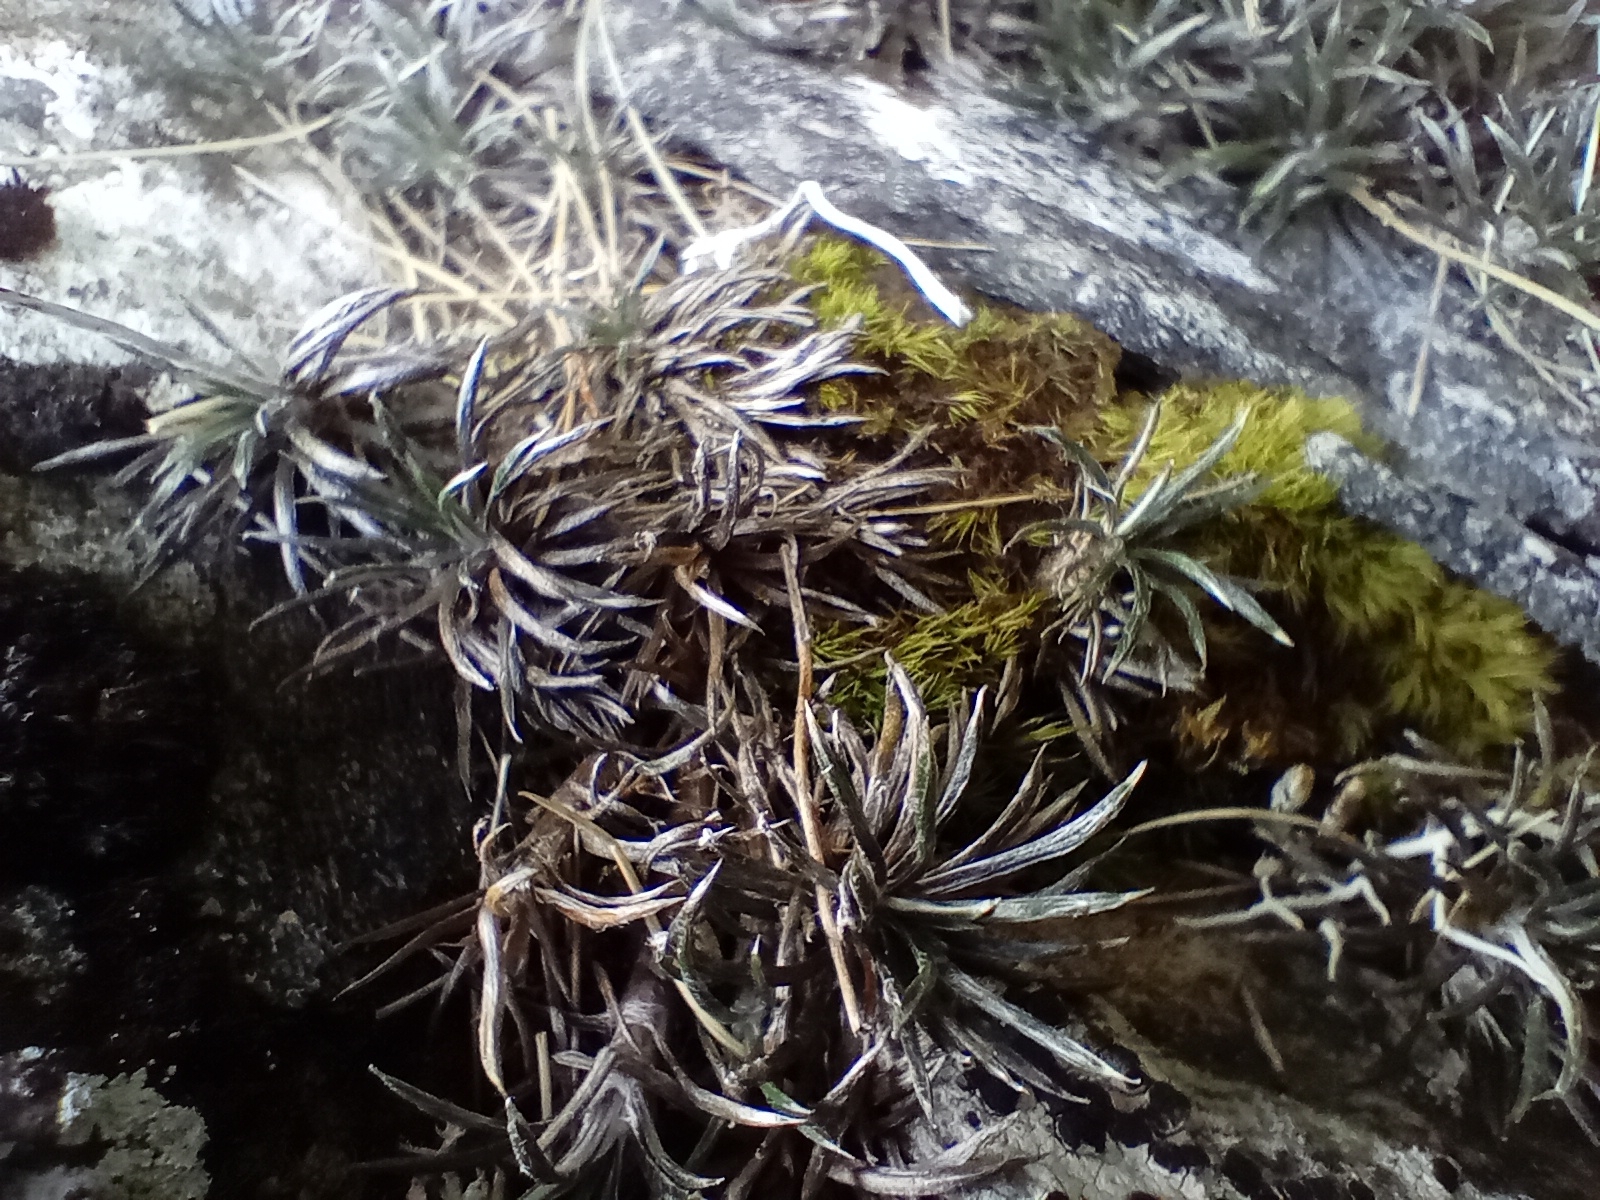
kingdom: Plantae
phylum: Tracheophyta
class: Magnoliopsida
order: Asterales
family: Asteraceae
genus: Celmisia
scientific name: Celmisia laricifolia
